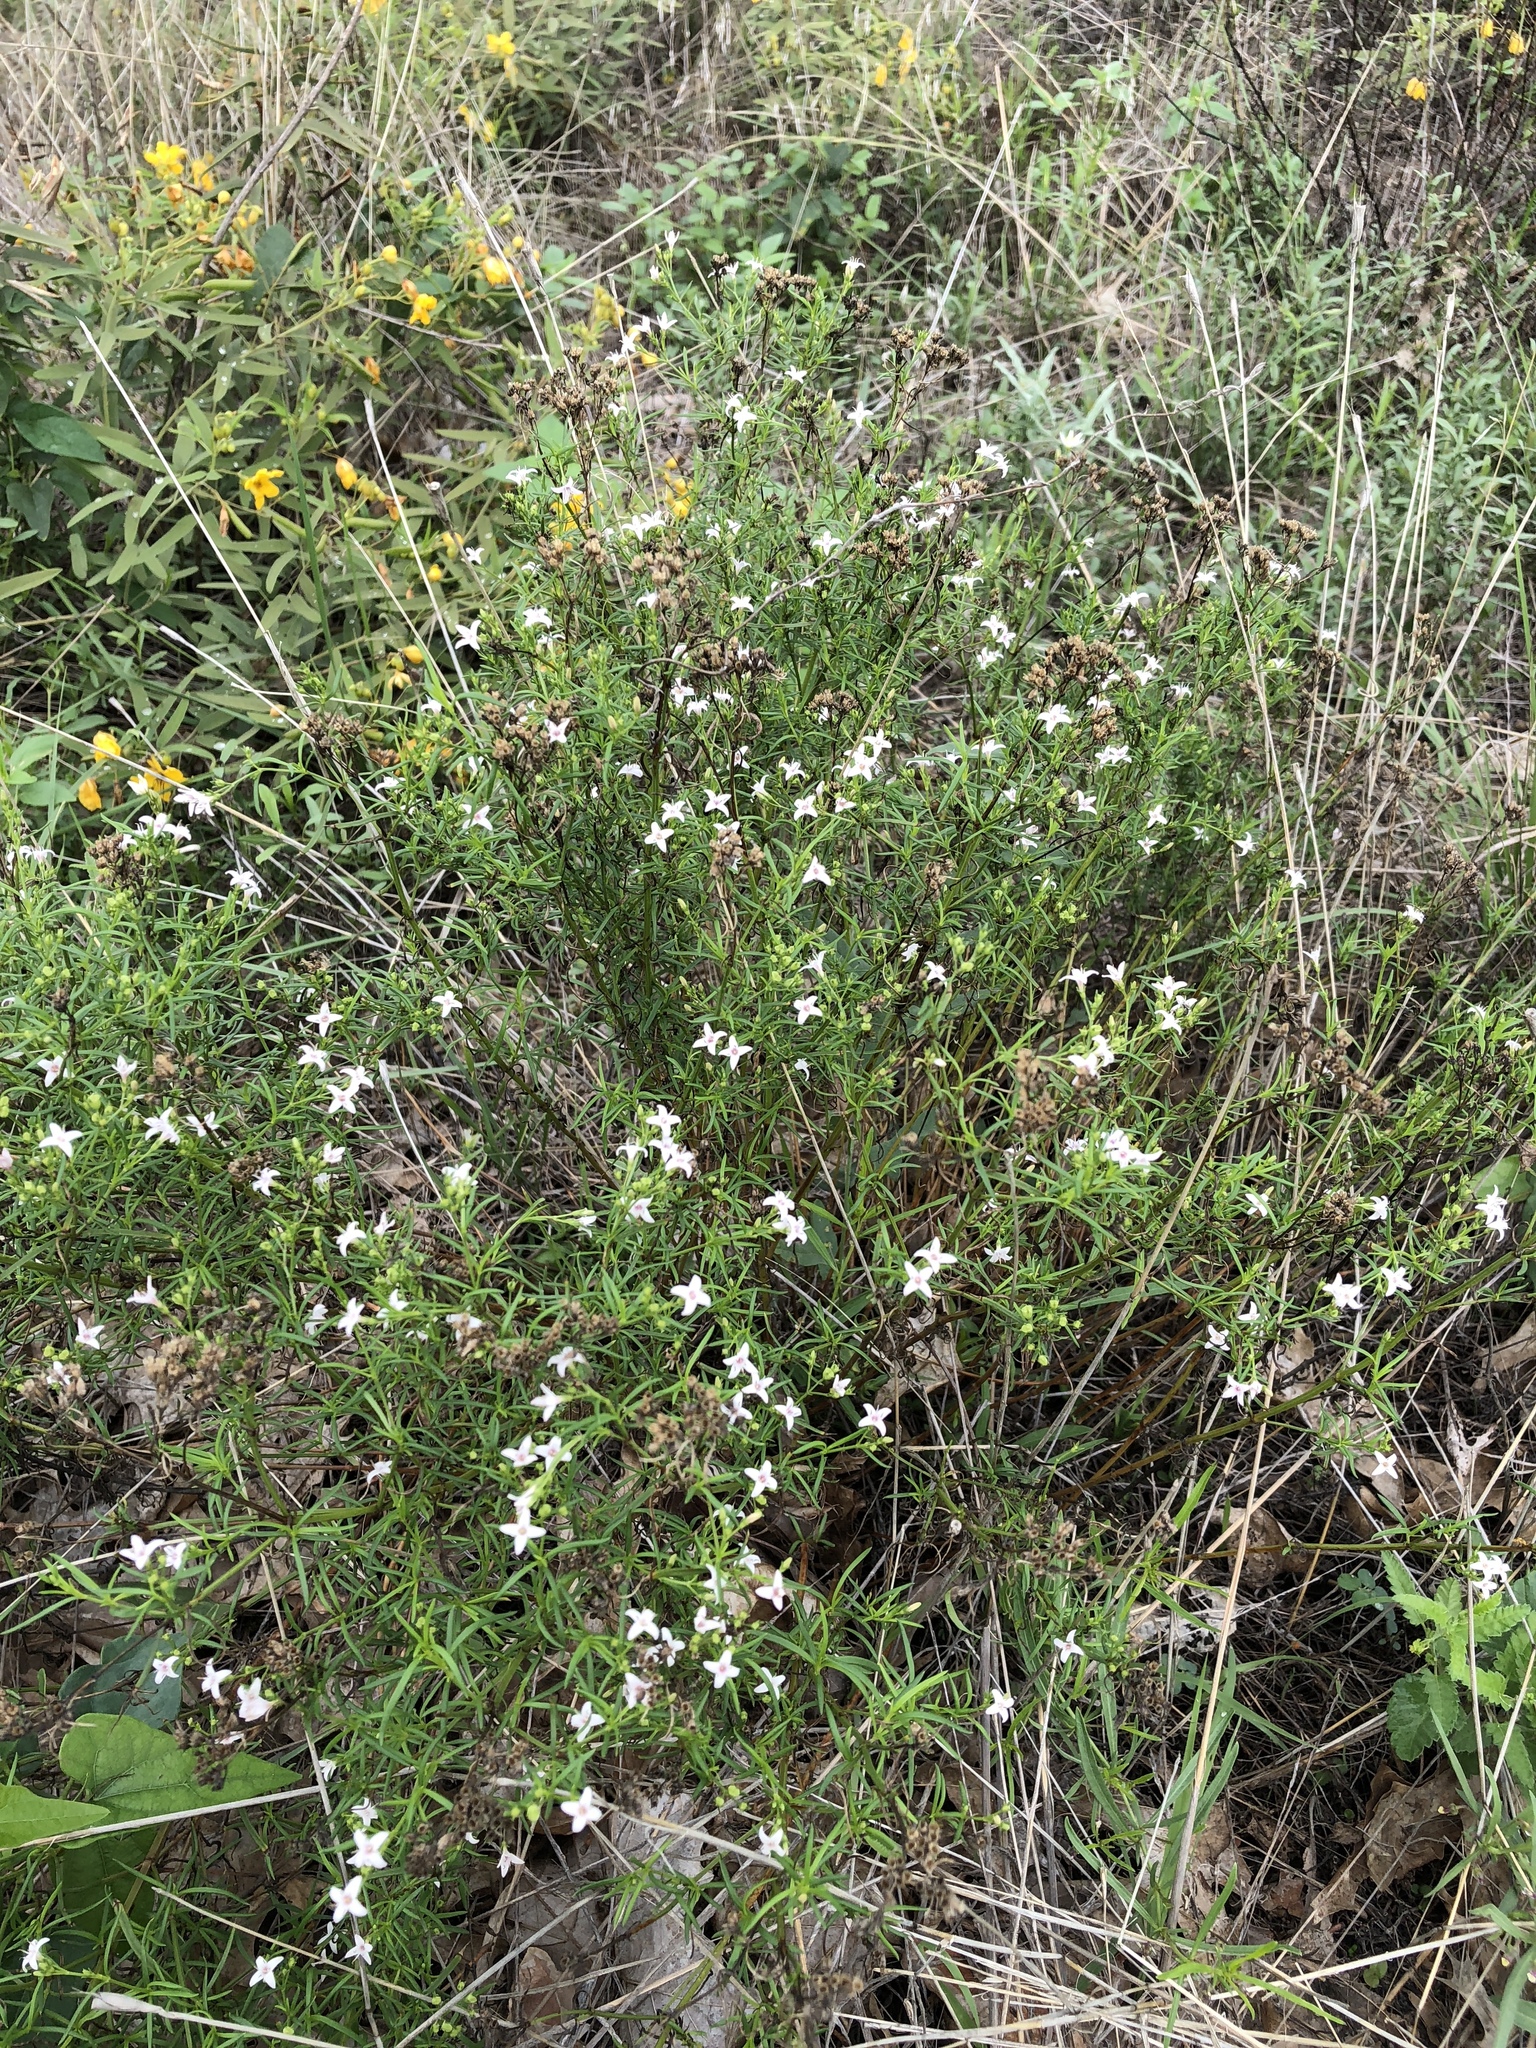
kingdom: Plantae
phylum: Tracheophyta
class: Magnoliopsida
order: Gentianales
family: Rubiaceae
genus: Stenaria
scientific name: Stenaria nigricans
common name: Diamondflowers
